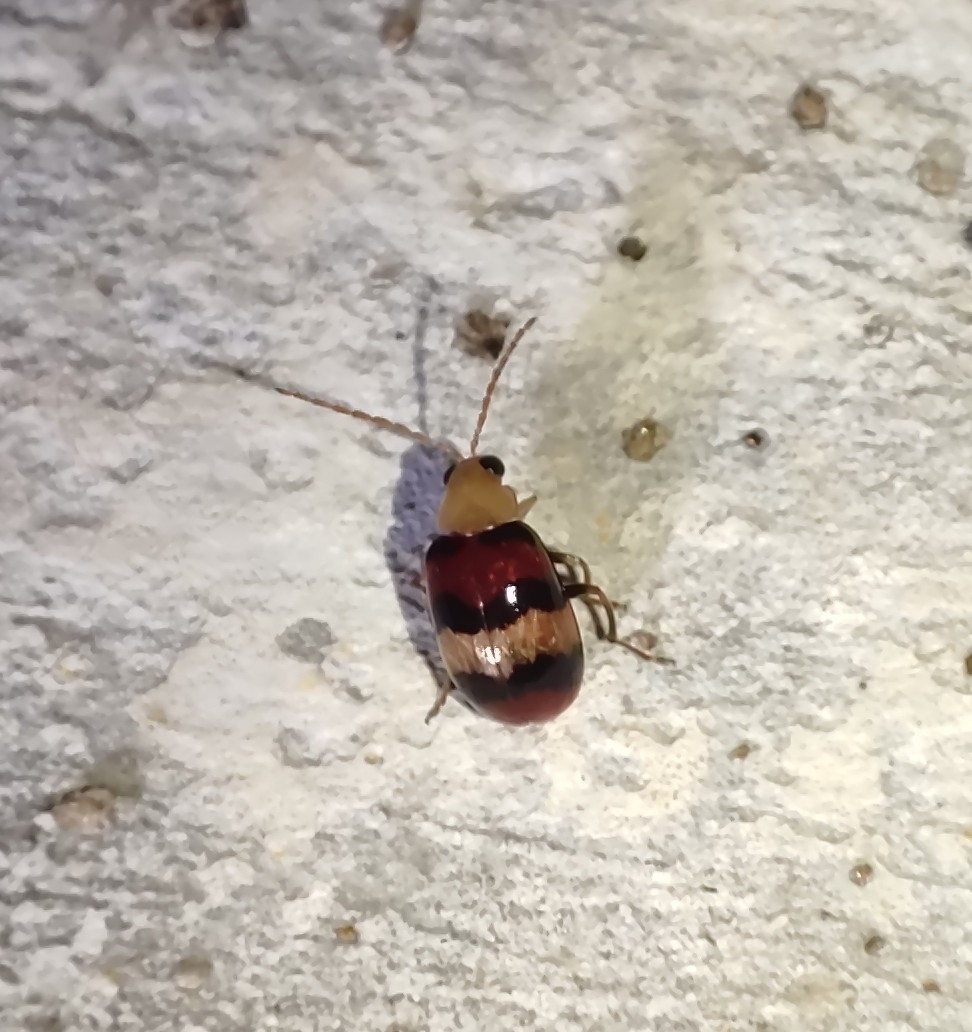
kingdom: Animalia
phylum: Arthropoda
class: Insecta
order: Coleoptera
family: Chrysomelidae
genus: Monolepta
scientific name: Monolepta
